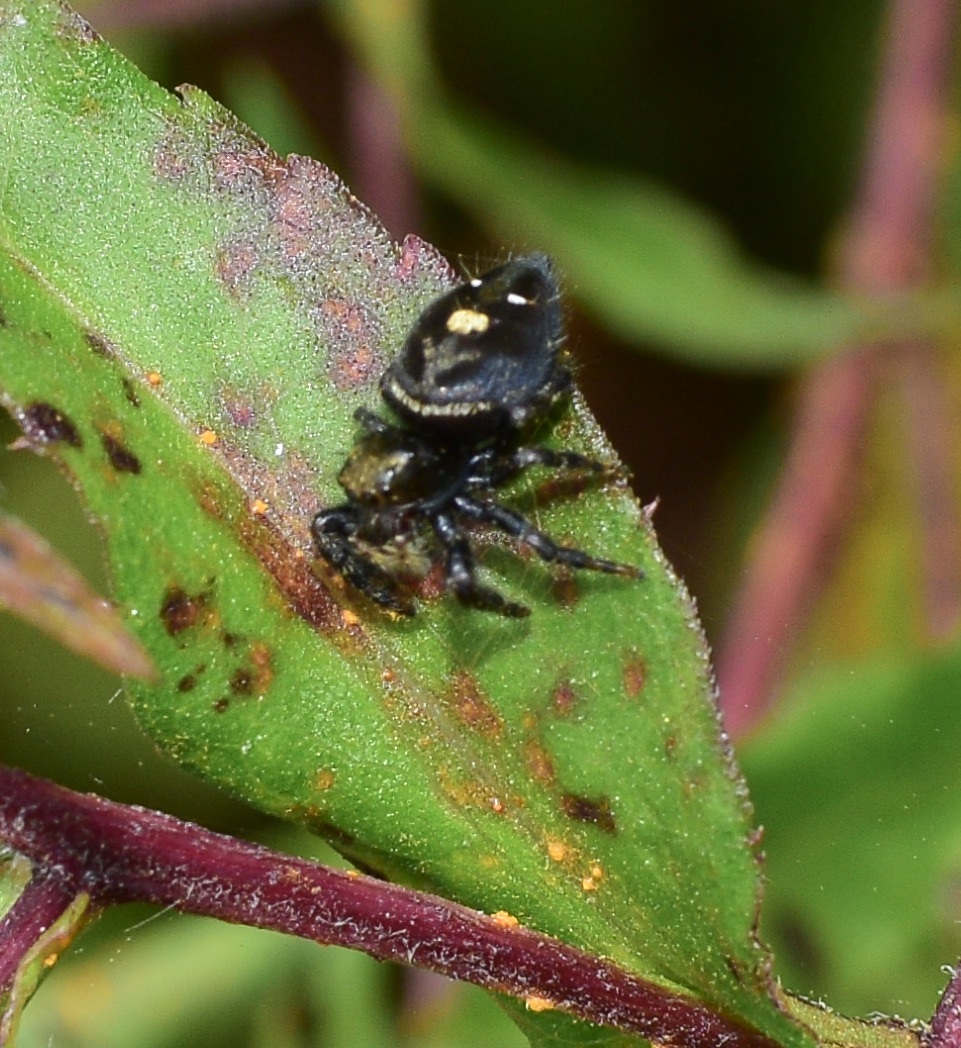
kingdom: Animalia
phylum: Arthropoda
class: Arachnida
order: Araneae
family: Salticidae
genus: Phidippus
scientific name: Phidippus audax
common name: Bold jumper
